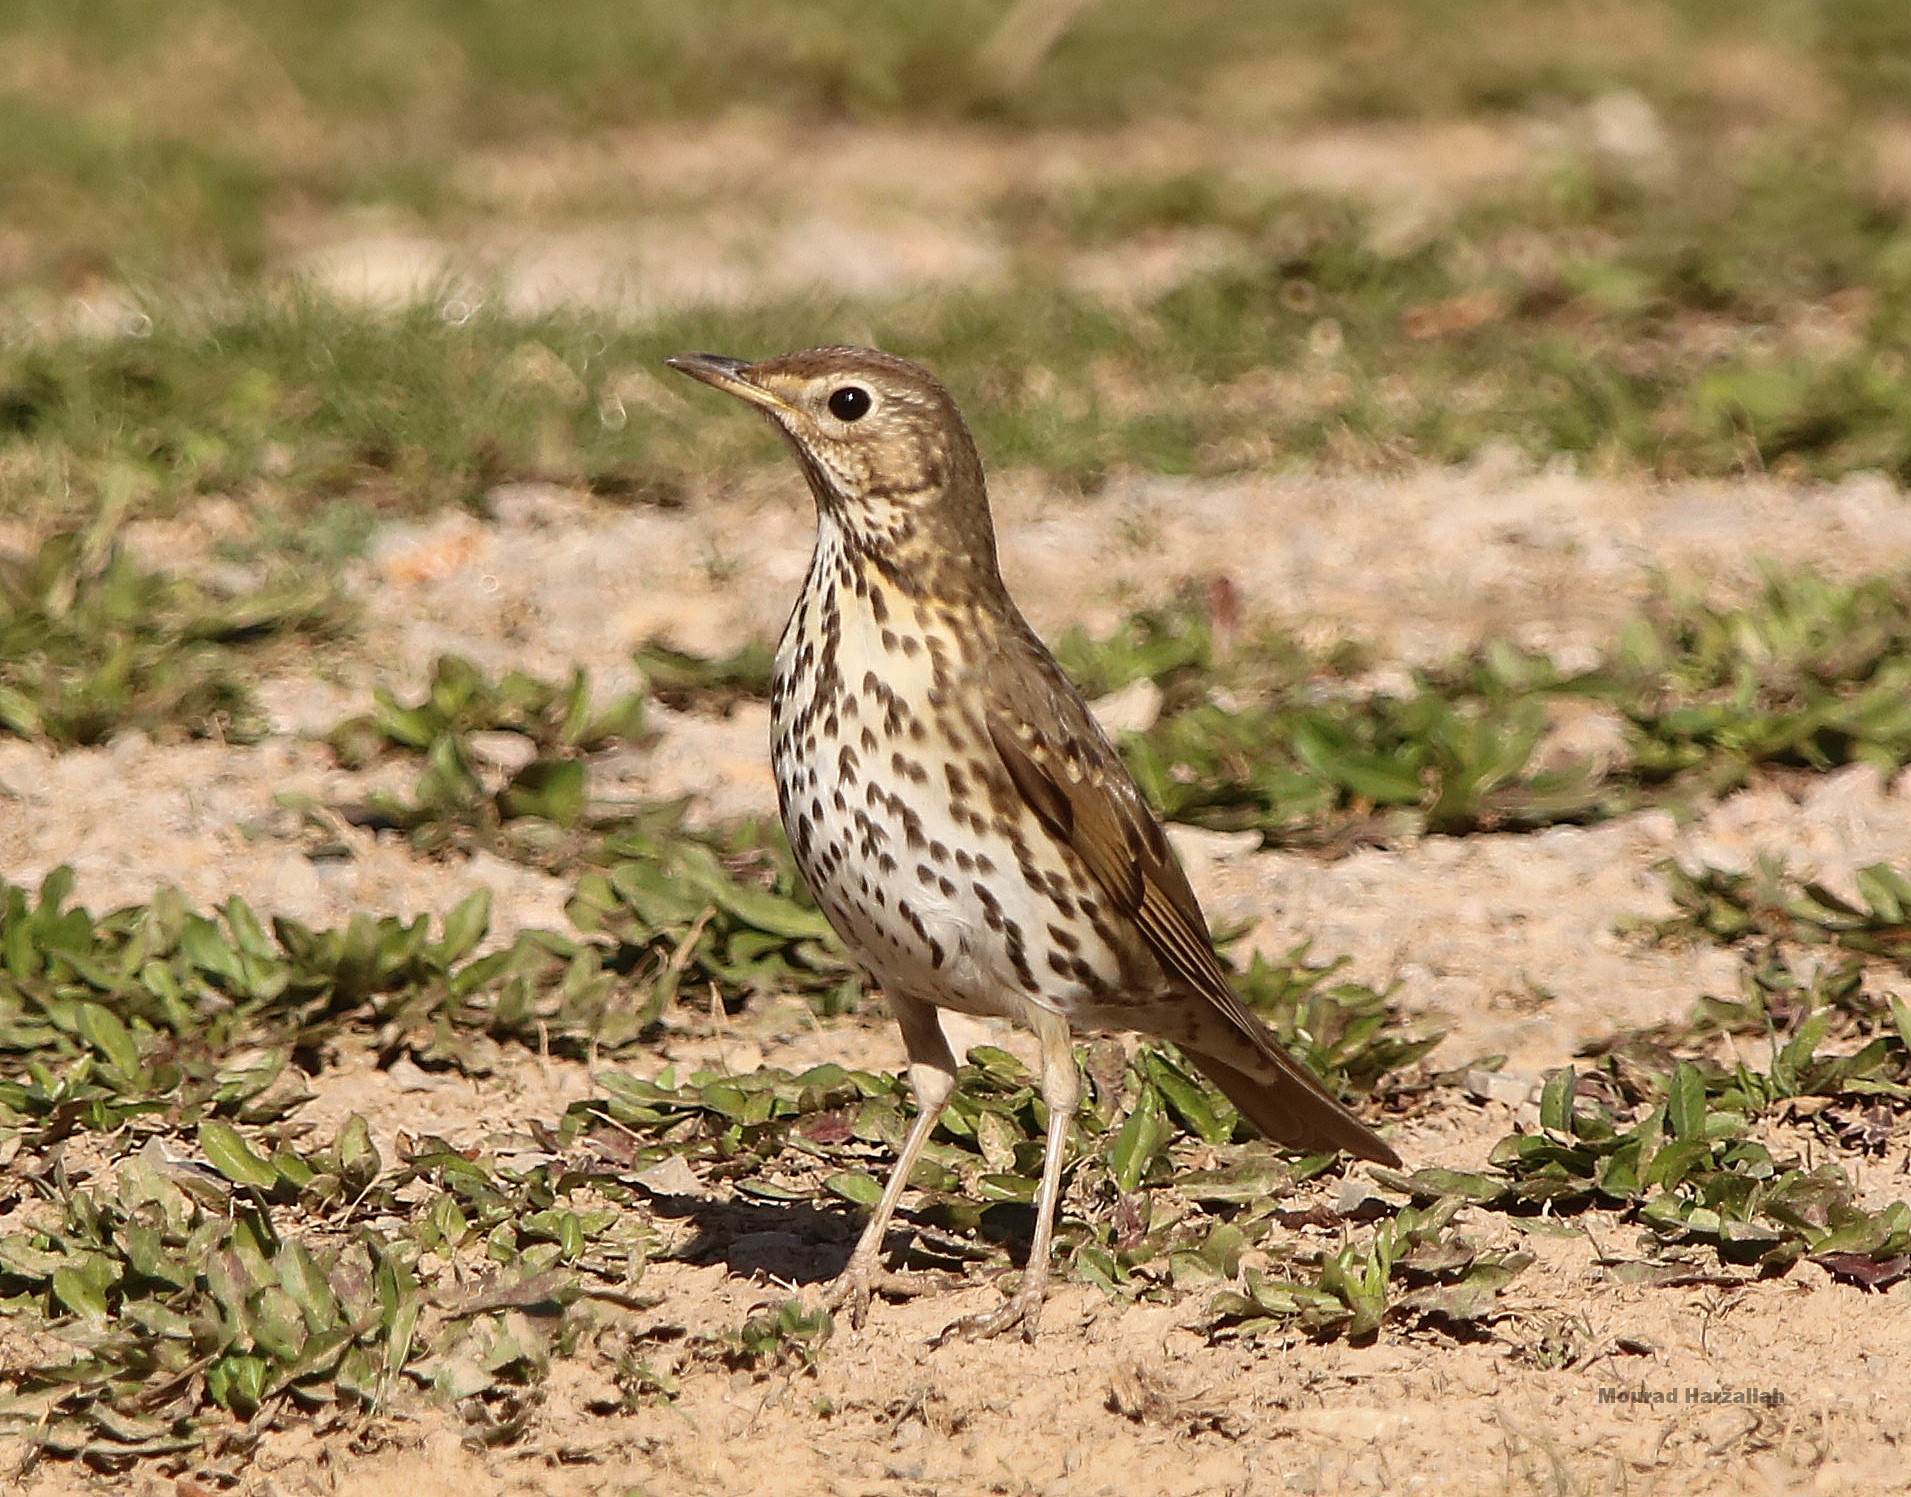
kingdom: Animalia
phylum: Chordata
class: Aves
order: Passeriformes
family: Turdidae
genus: Turdus
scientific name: Turdus philomelos
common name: Song thrush
